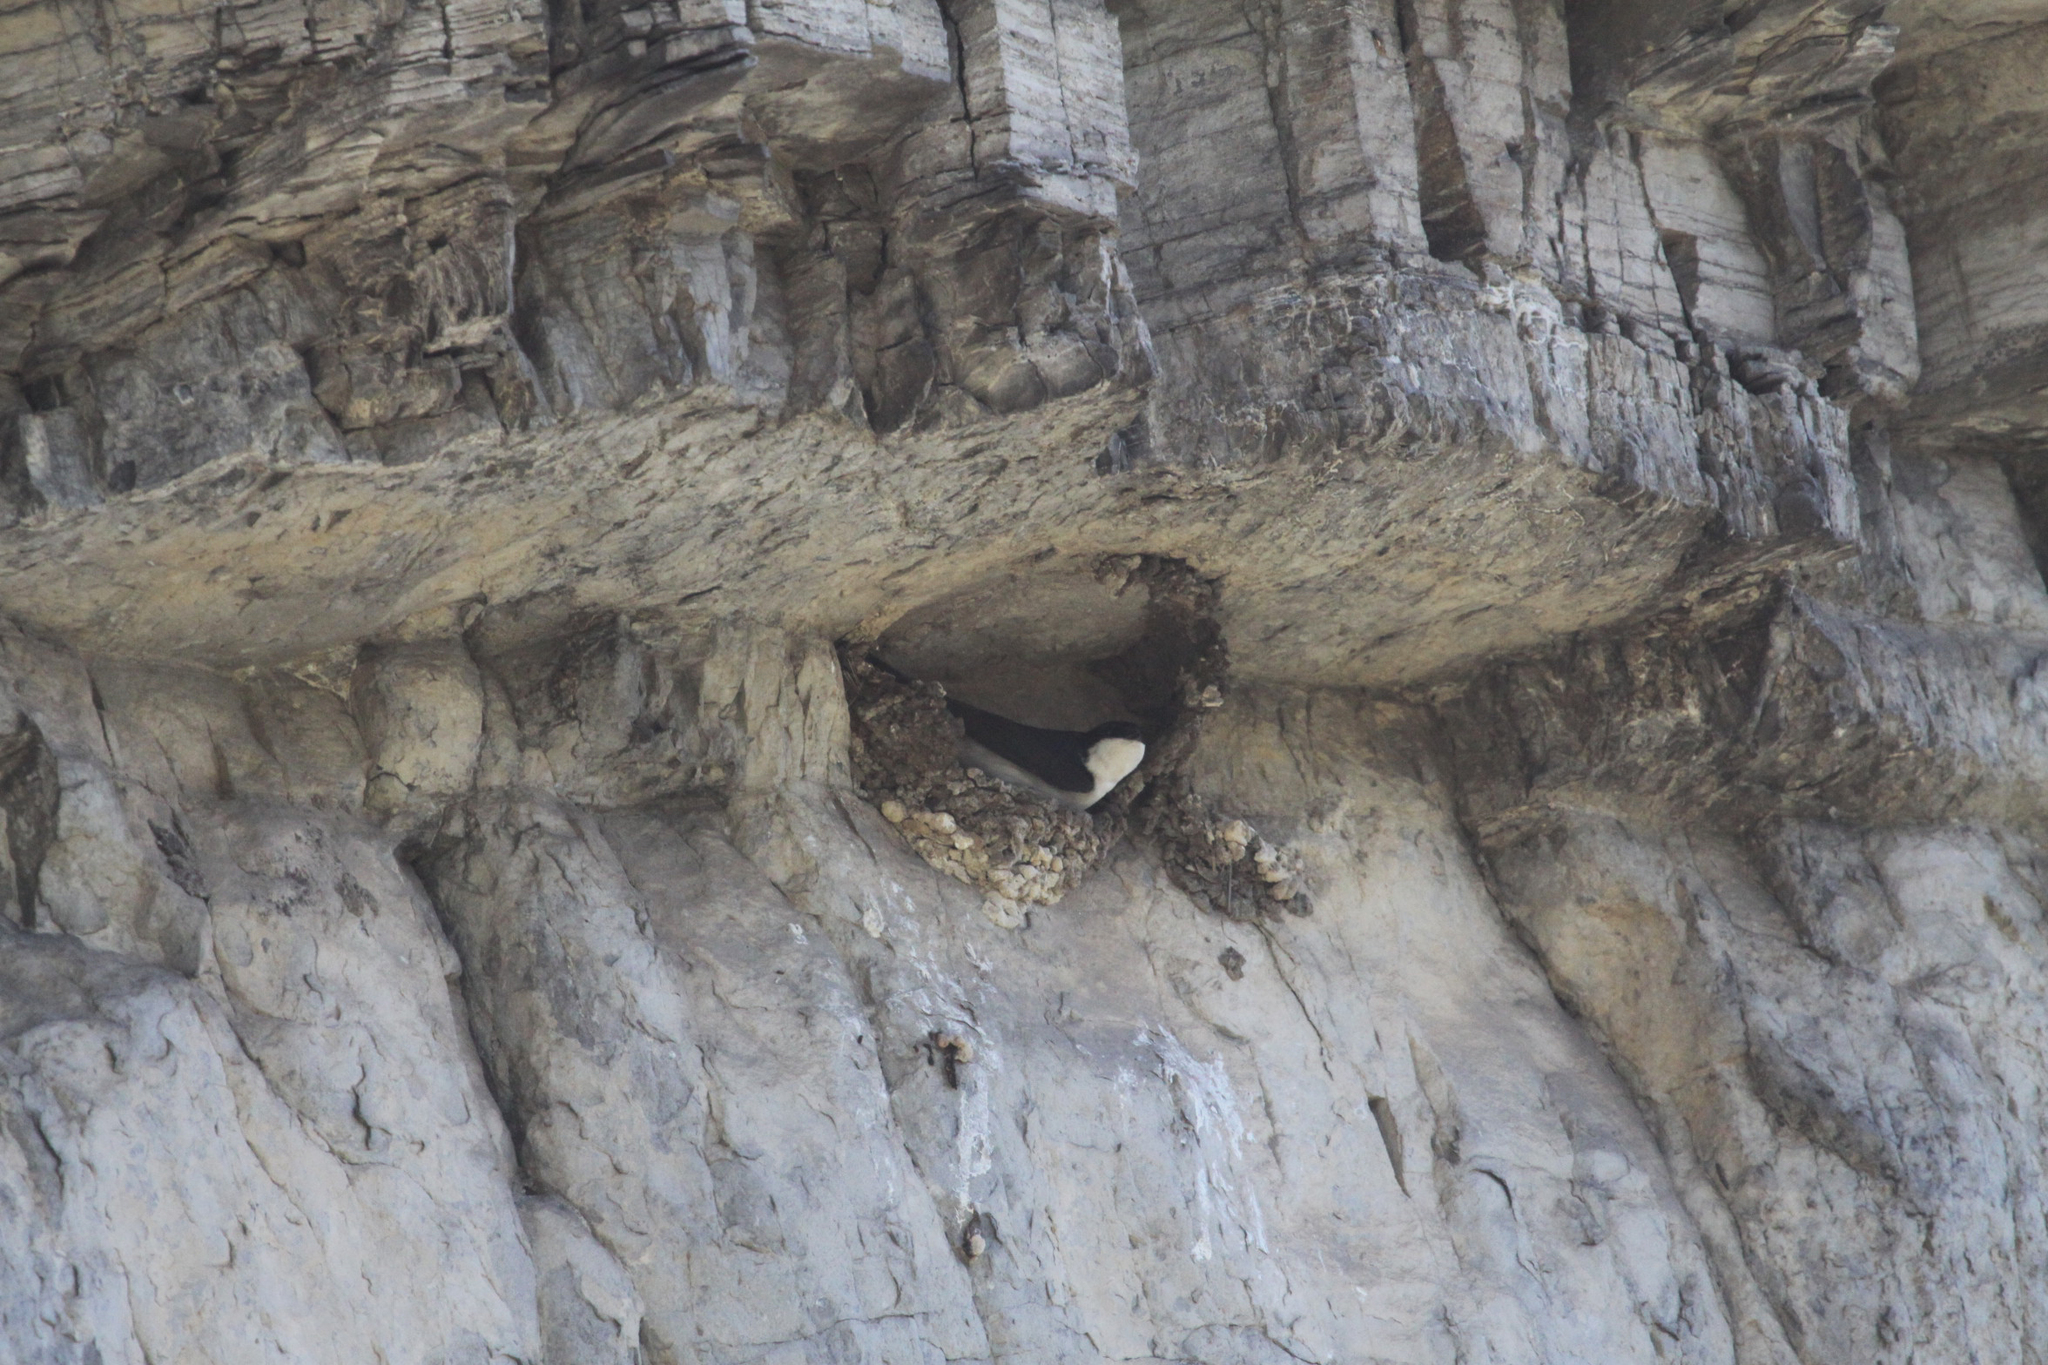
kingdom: Animalia
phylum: Chordata
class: Aves
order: Passeriformes
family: Hirundinidae
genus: Delichon
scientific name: Delichon urbicum
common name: Common house martin
